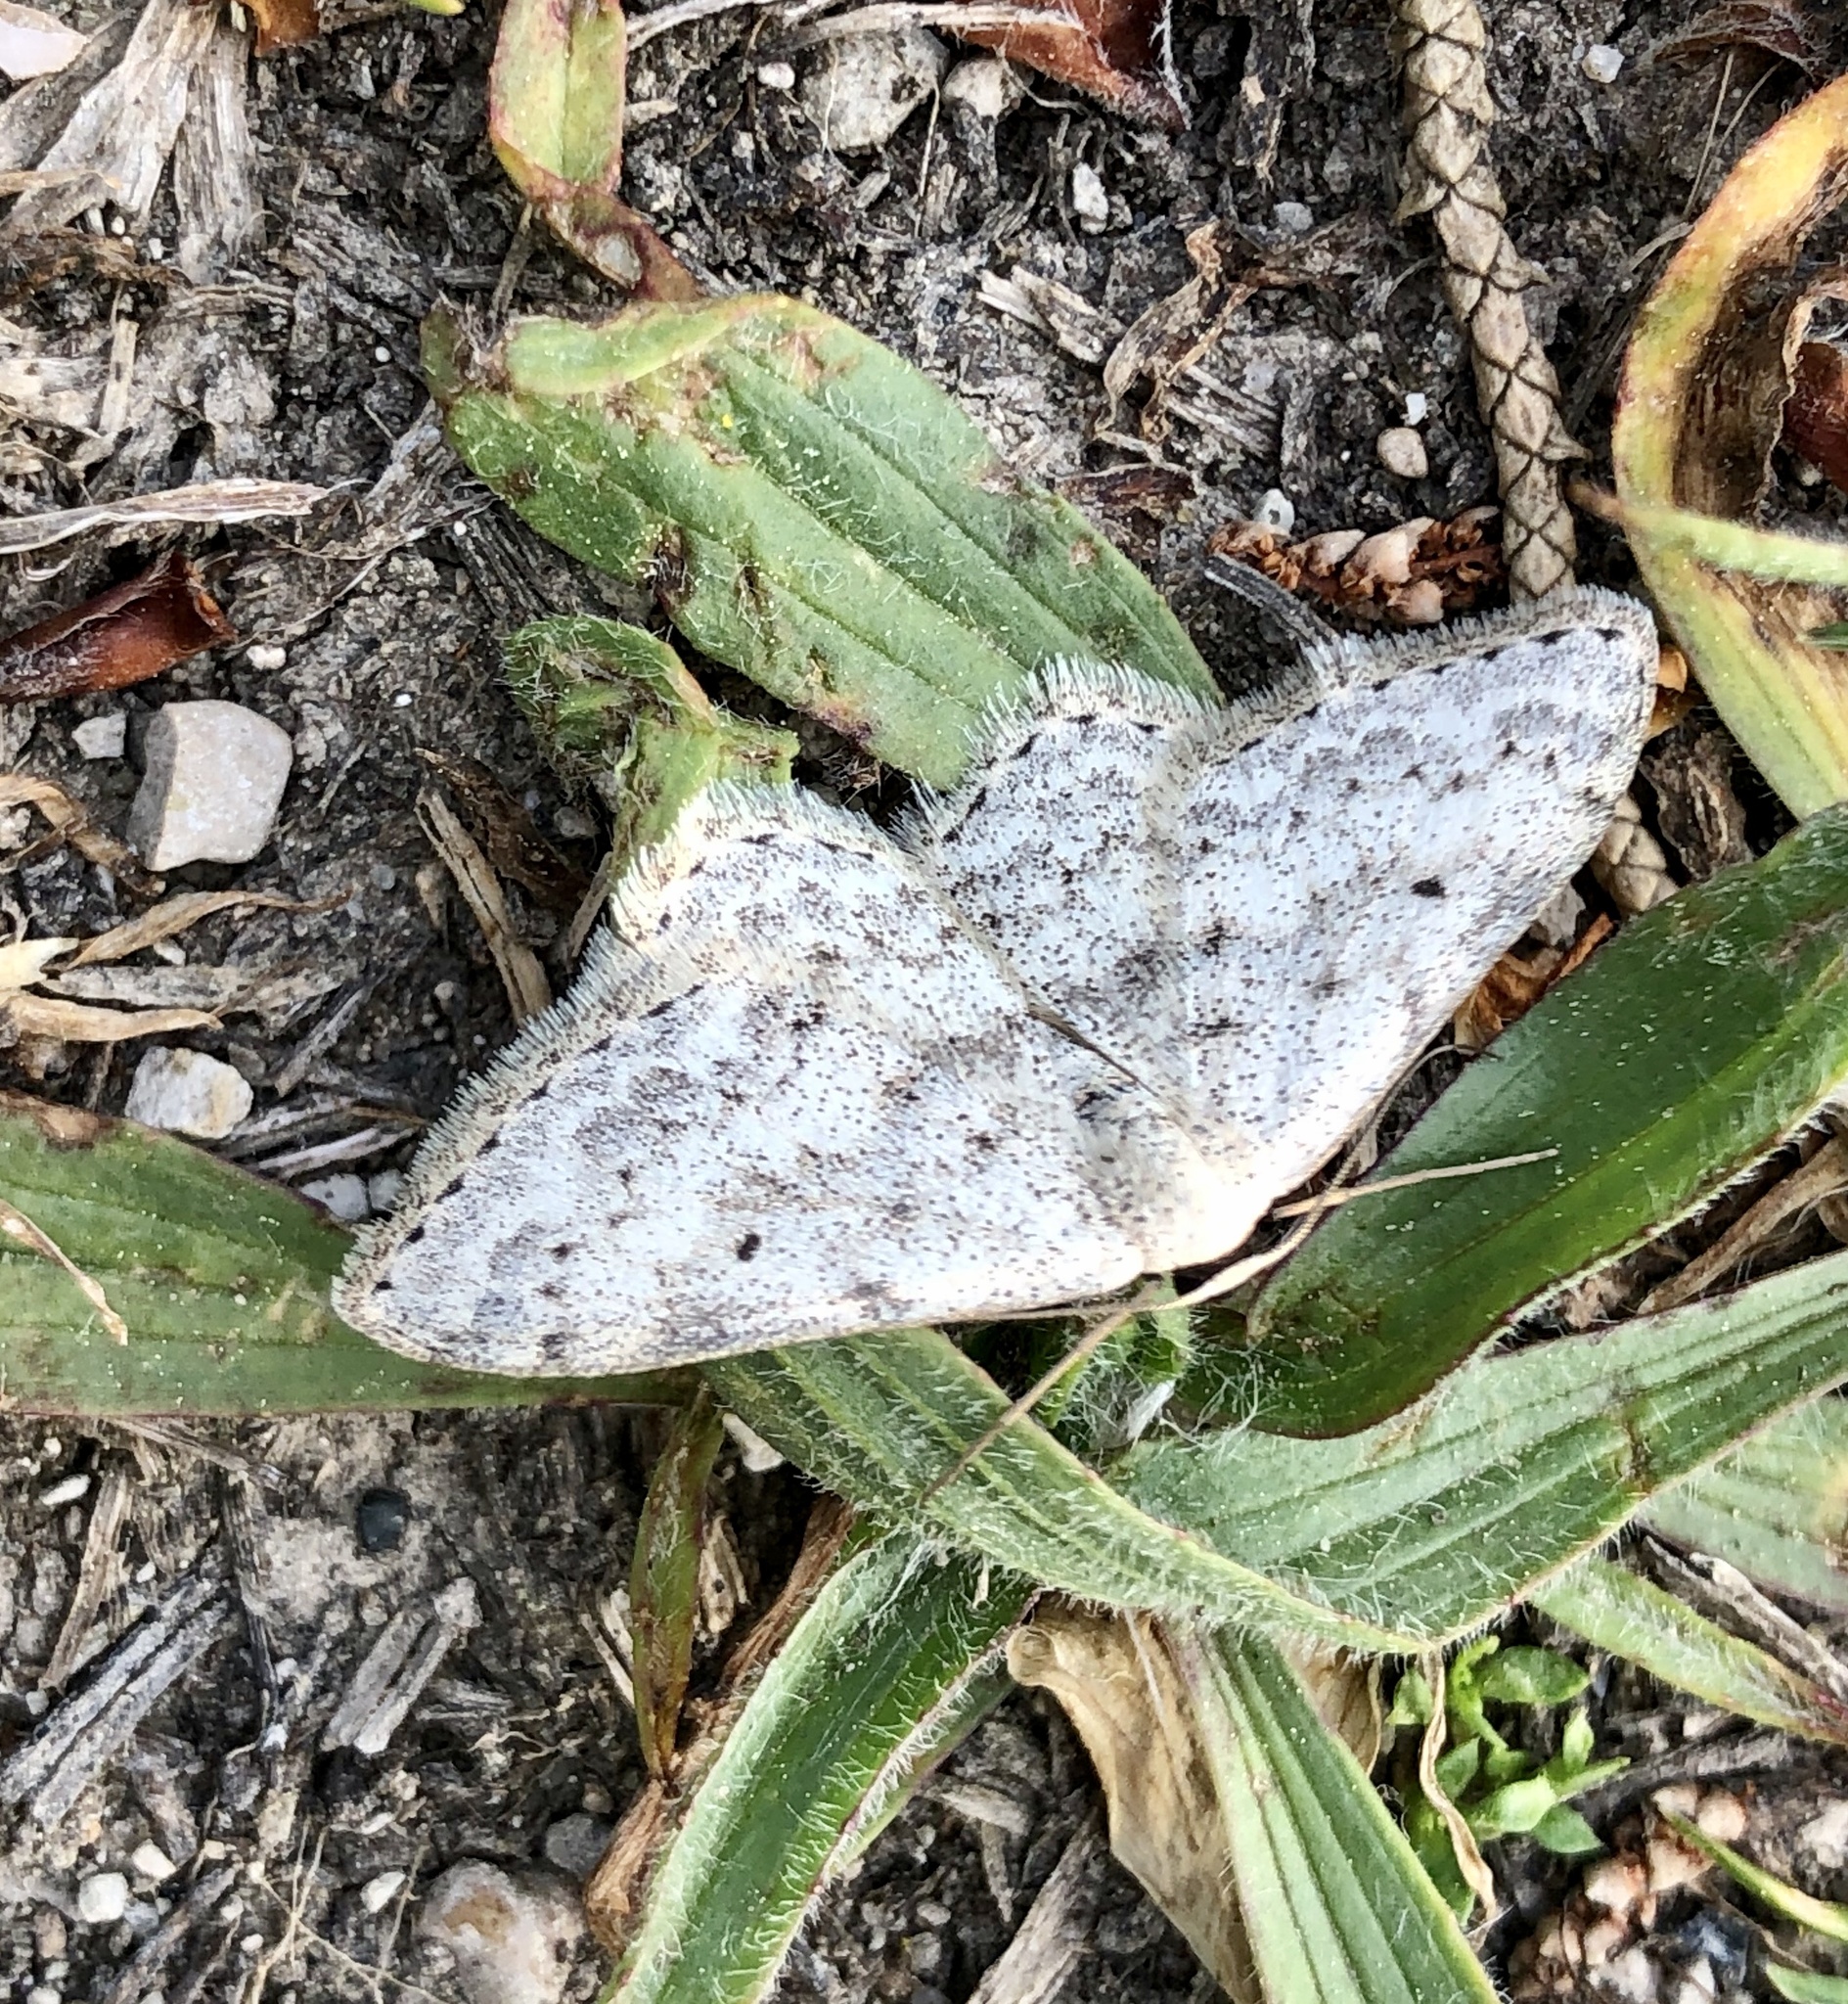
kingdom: Animalia
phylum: Arthropoda
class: Insecta
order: Lepidoptera
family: Geometridae
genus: Scopula
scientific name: Scopula marginepunctata
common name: Mullein wave
